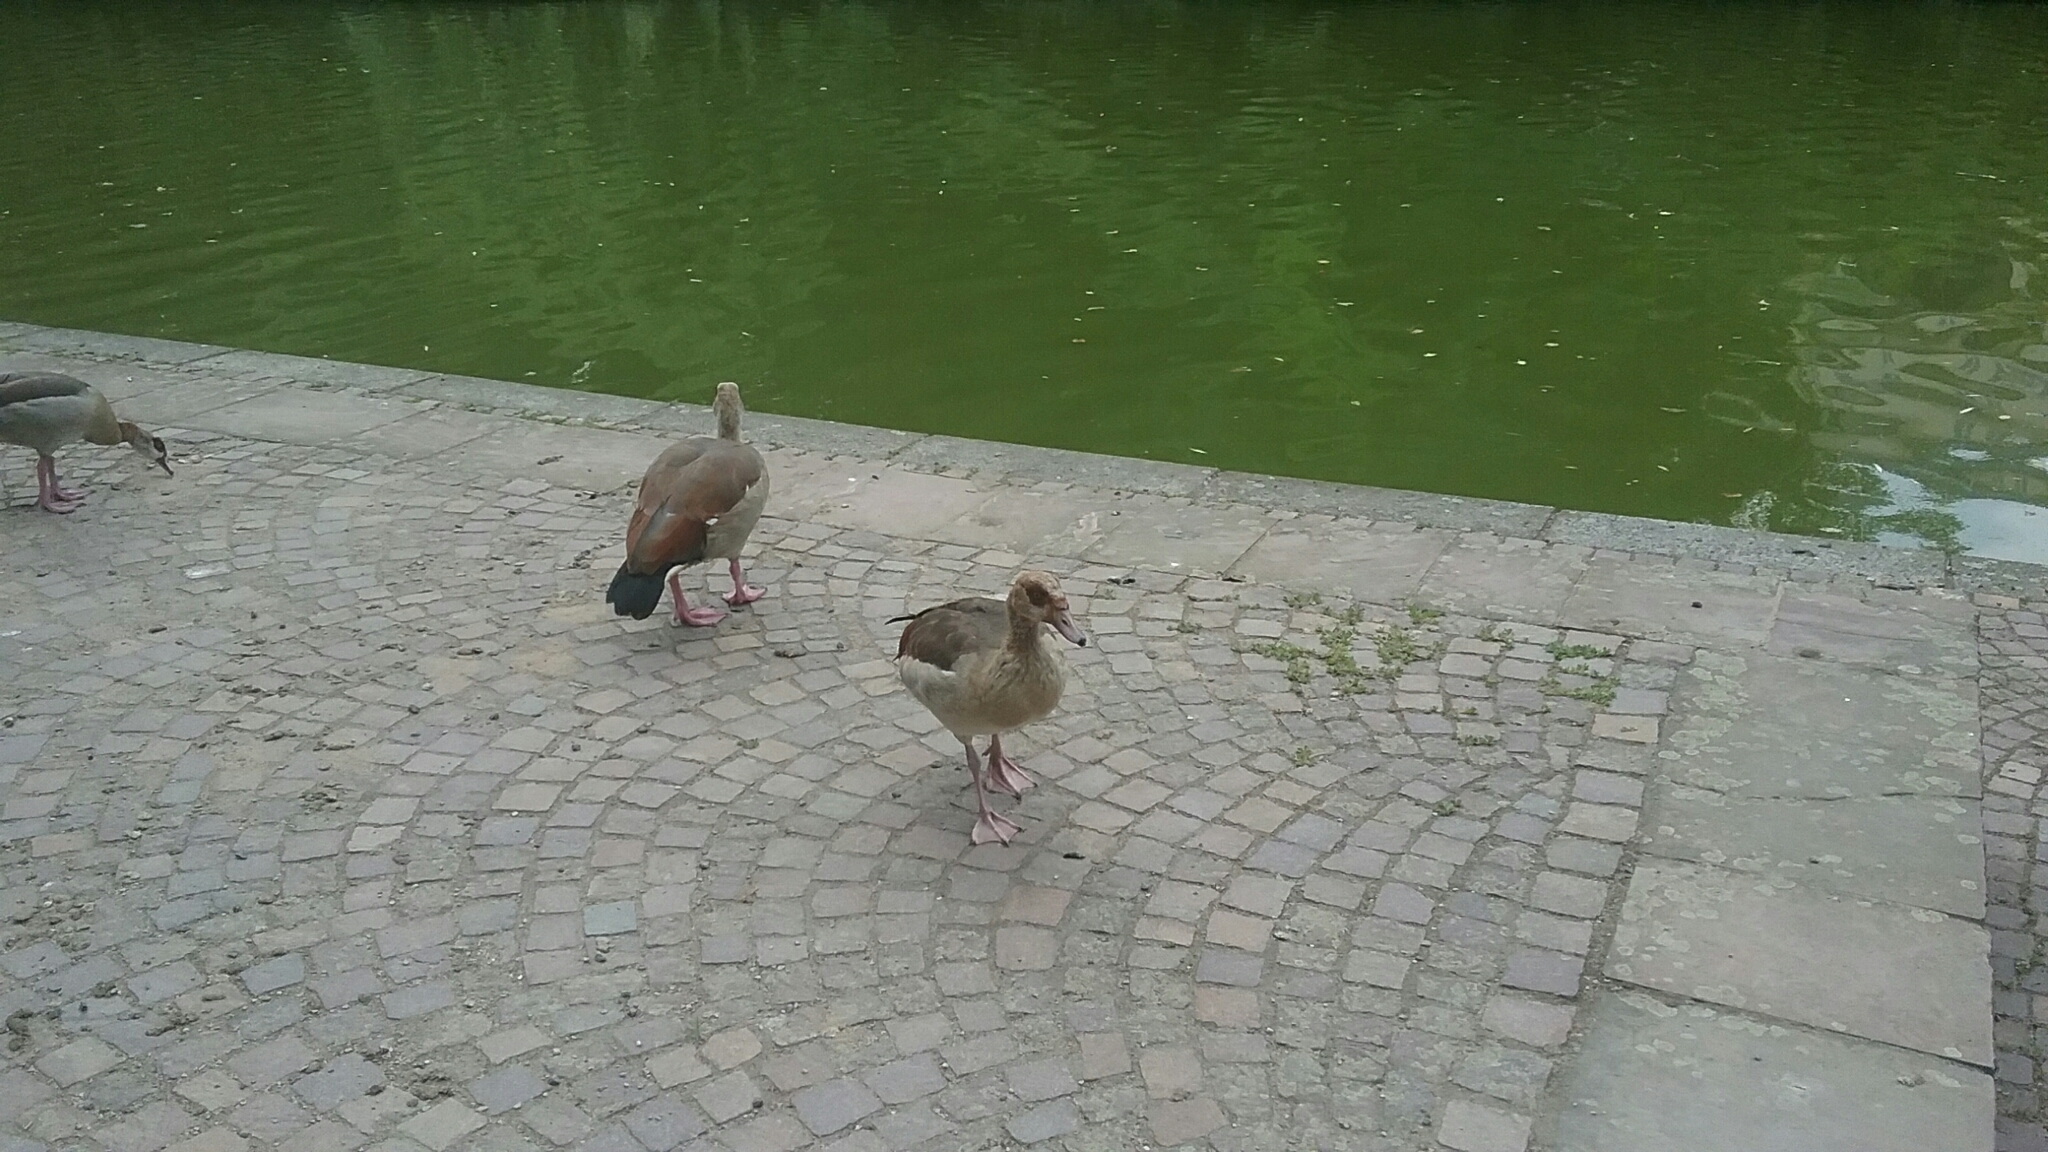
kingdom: Animalia
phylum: Chordata
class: Aves
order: Anseriformes
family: Anatidae
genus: Alopochen
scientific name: Alopochen aegyptiaca
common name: Egyptian goose
